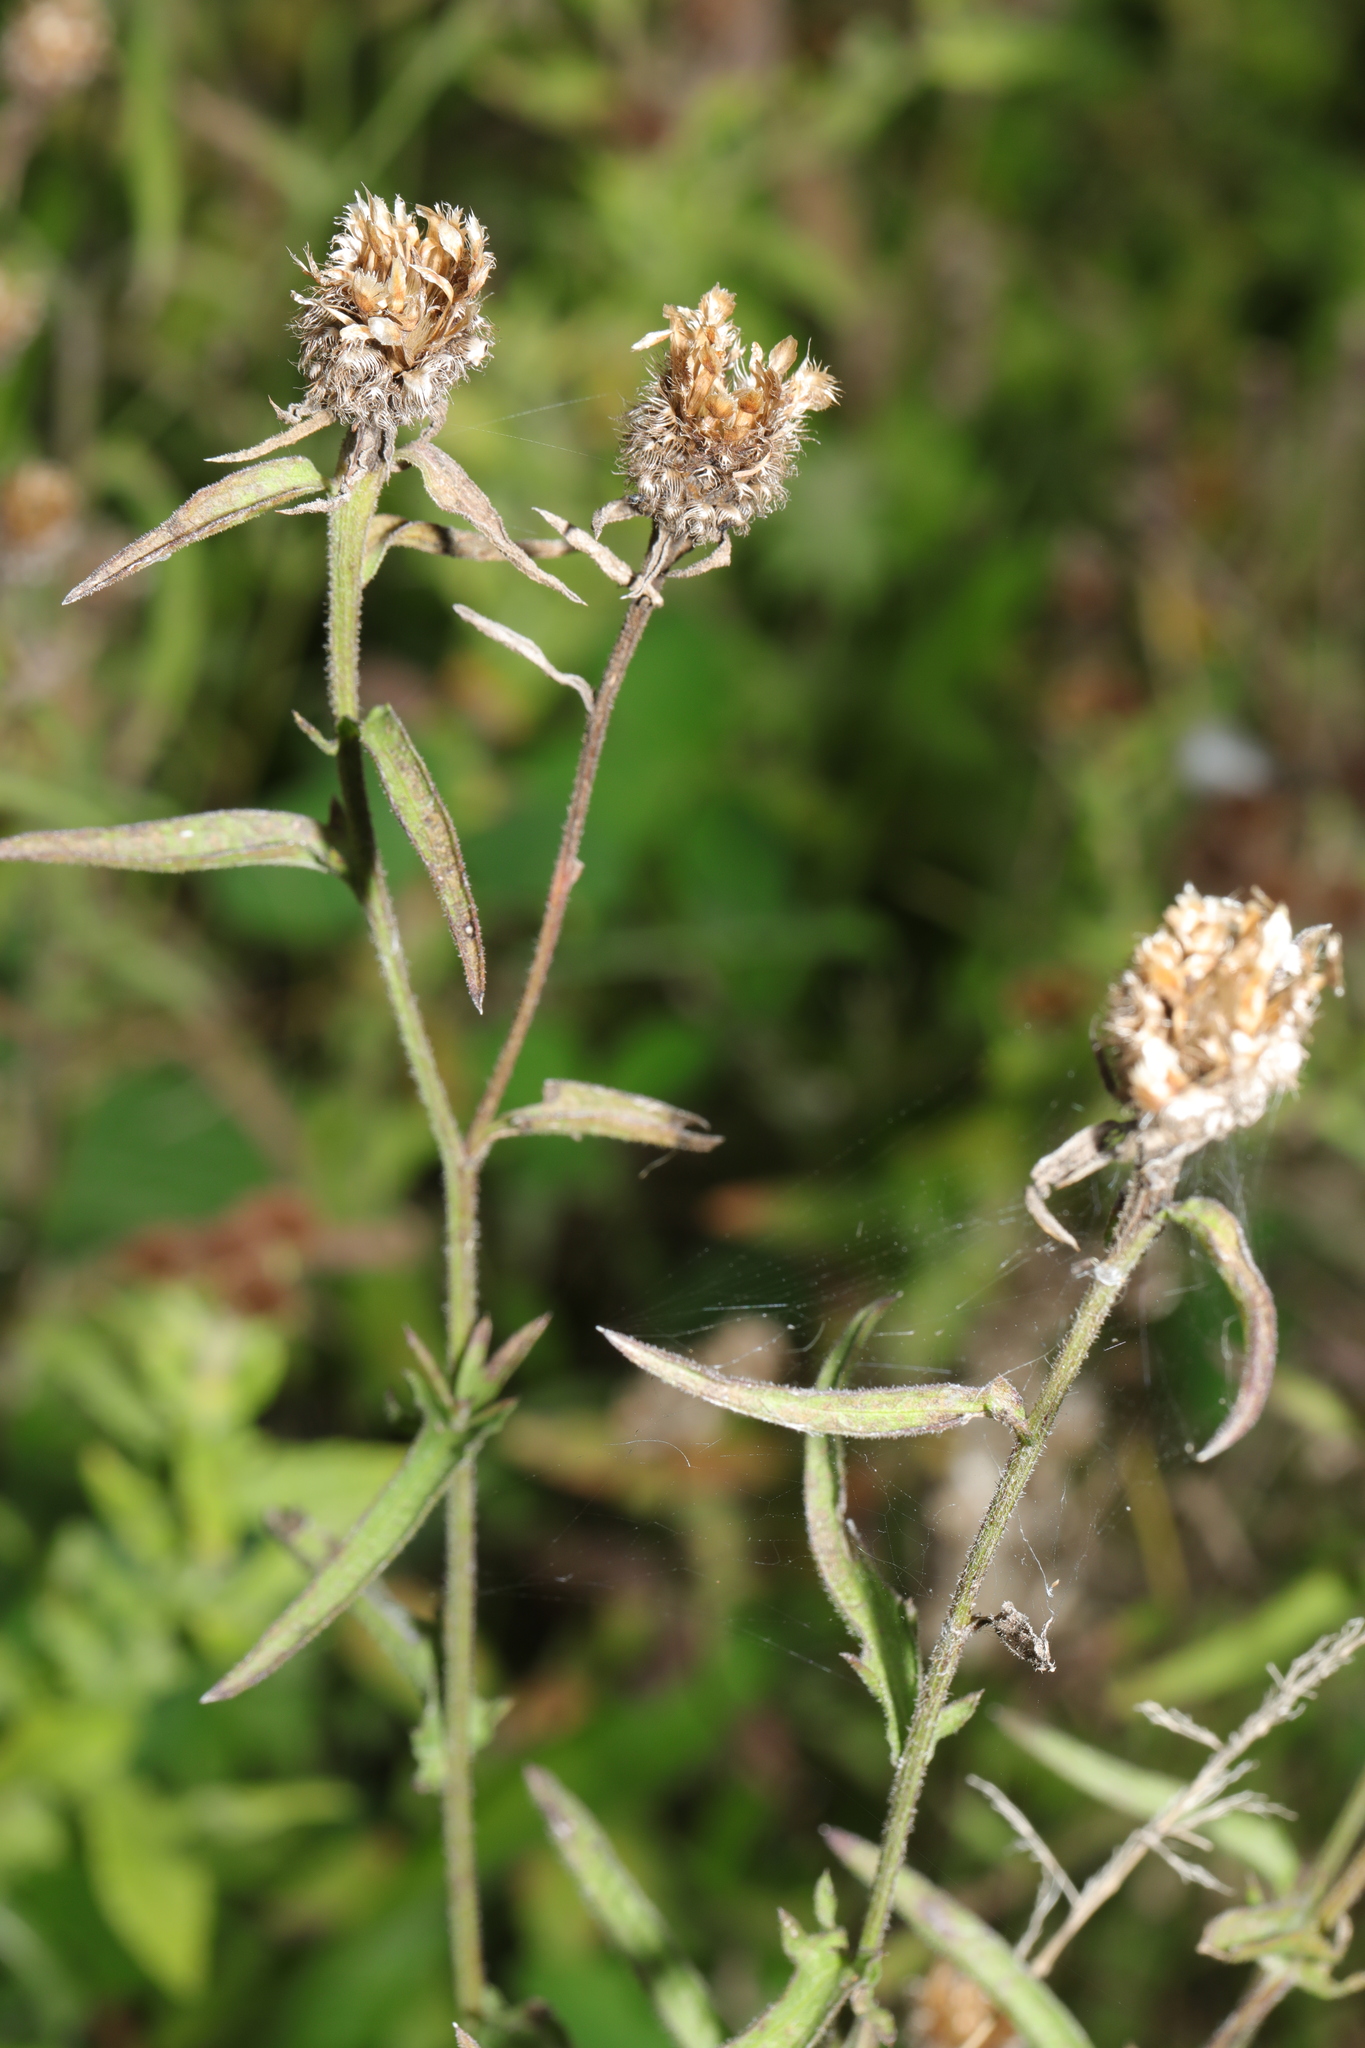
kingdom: Plantae
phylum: Tracheophyta
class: Magnoliopsida
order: Asterales
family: Asteraceae
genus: Centaurea
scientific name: Centaurea nigra
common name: Lesser knapweed
